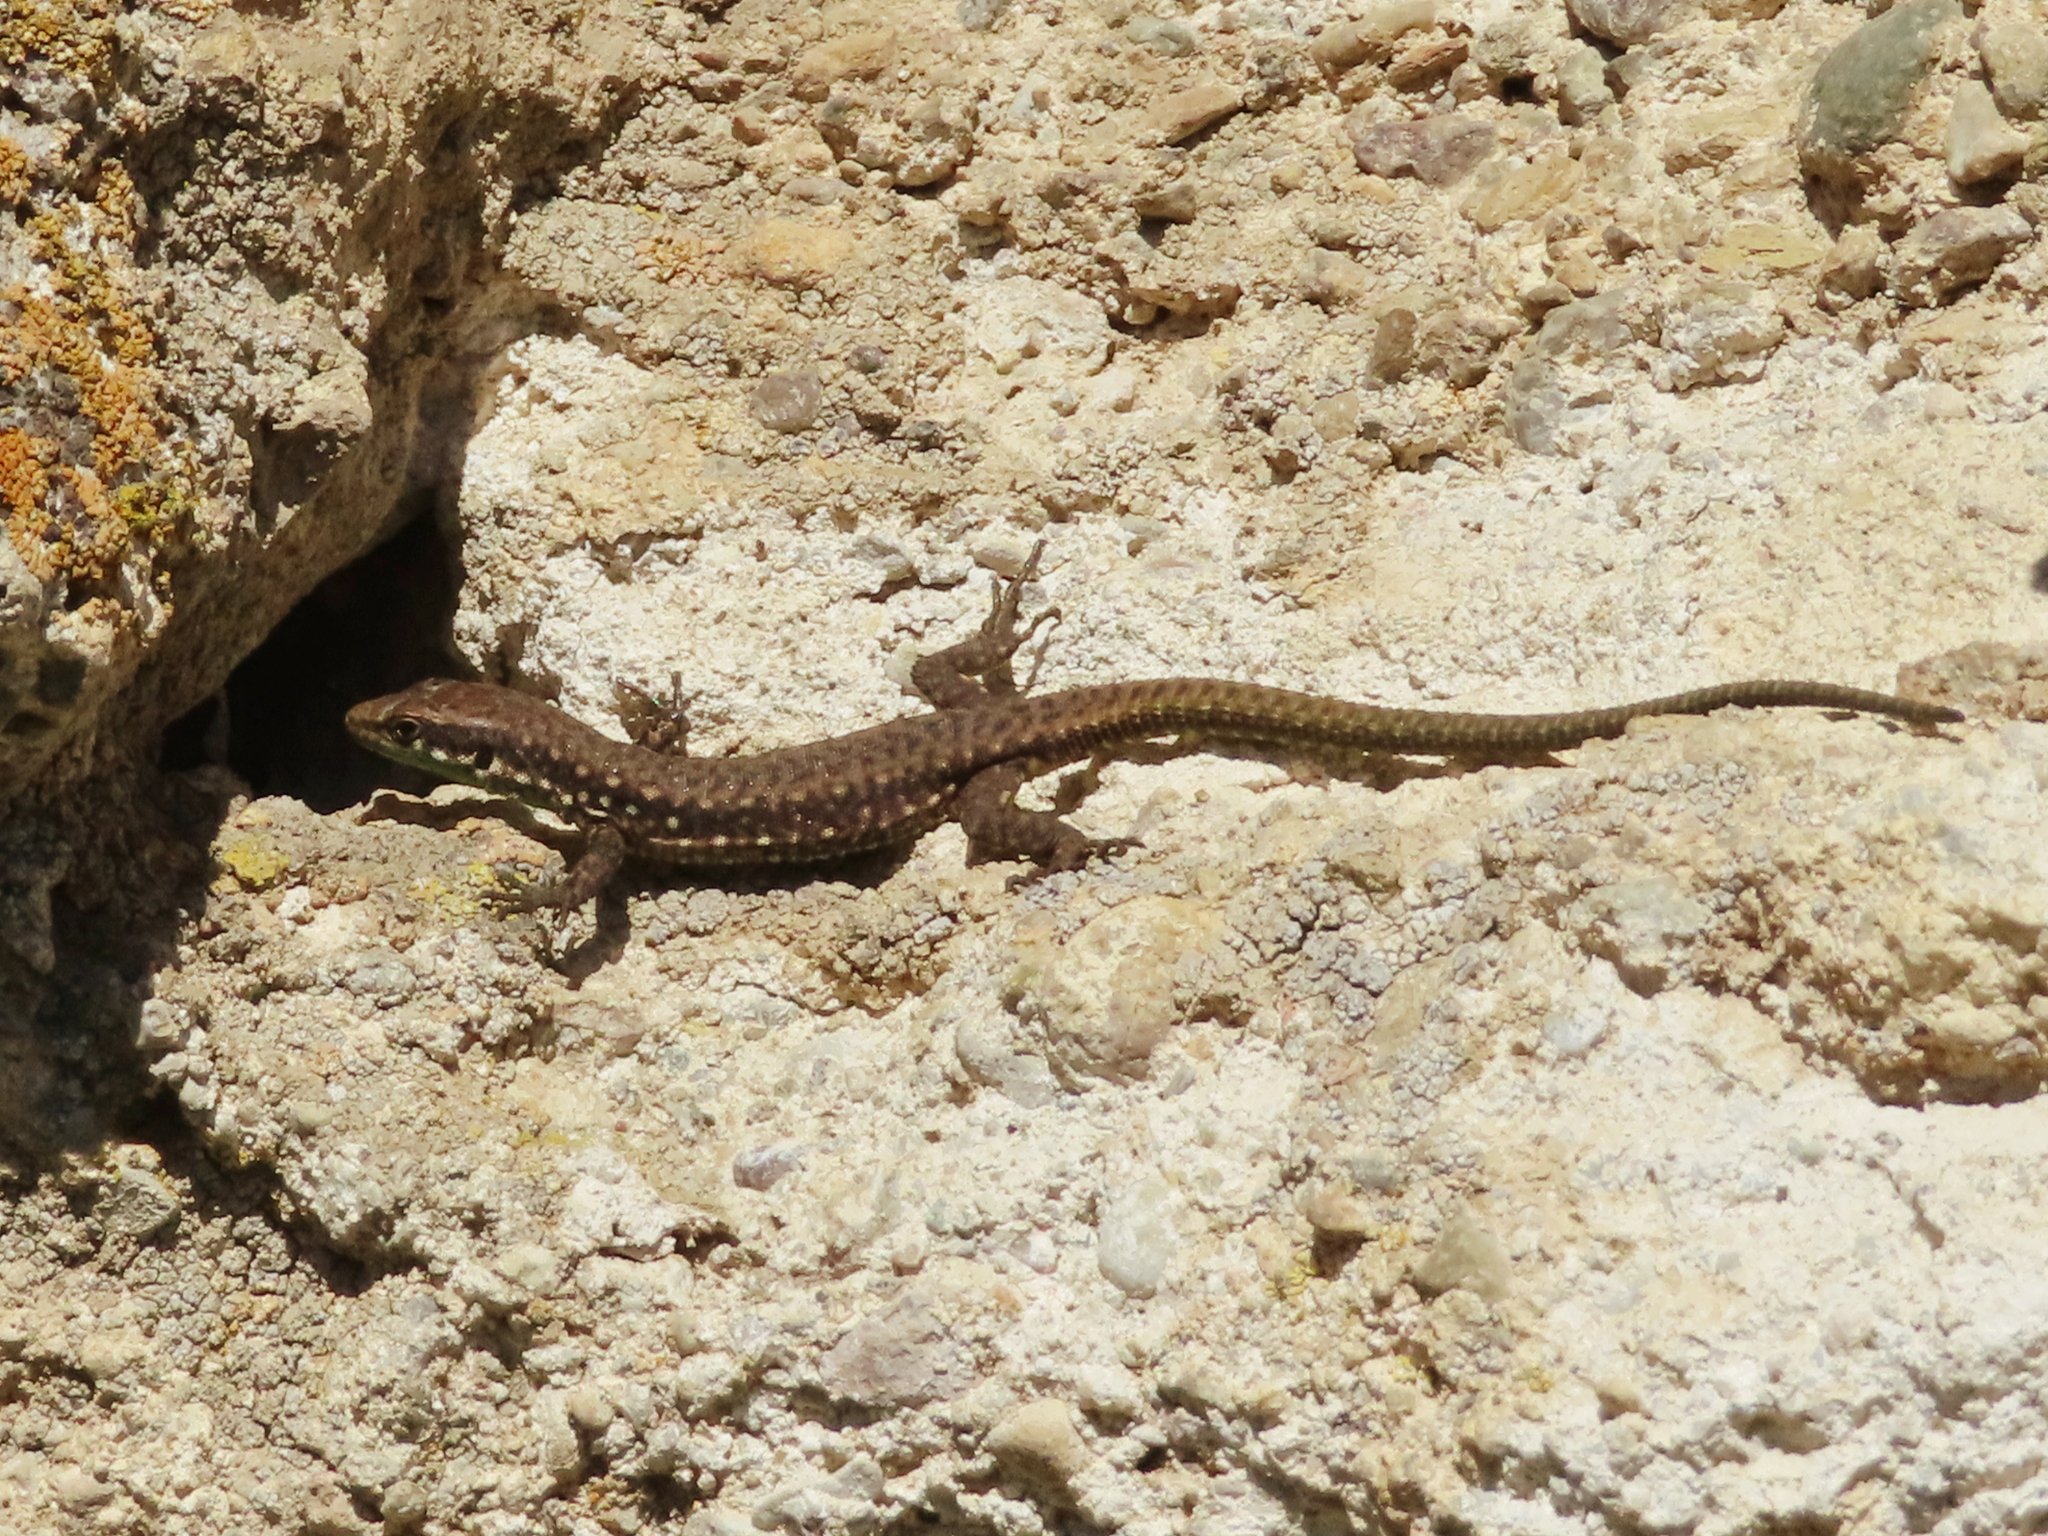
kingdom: Animalia
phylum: Chordata
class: Squamata
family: Lacertidae
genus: Darevskia
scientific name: Darevskia raddei
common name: Radde's lizard
